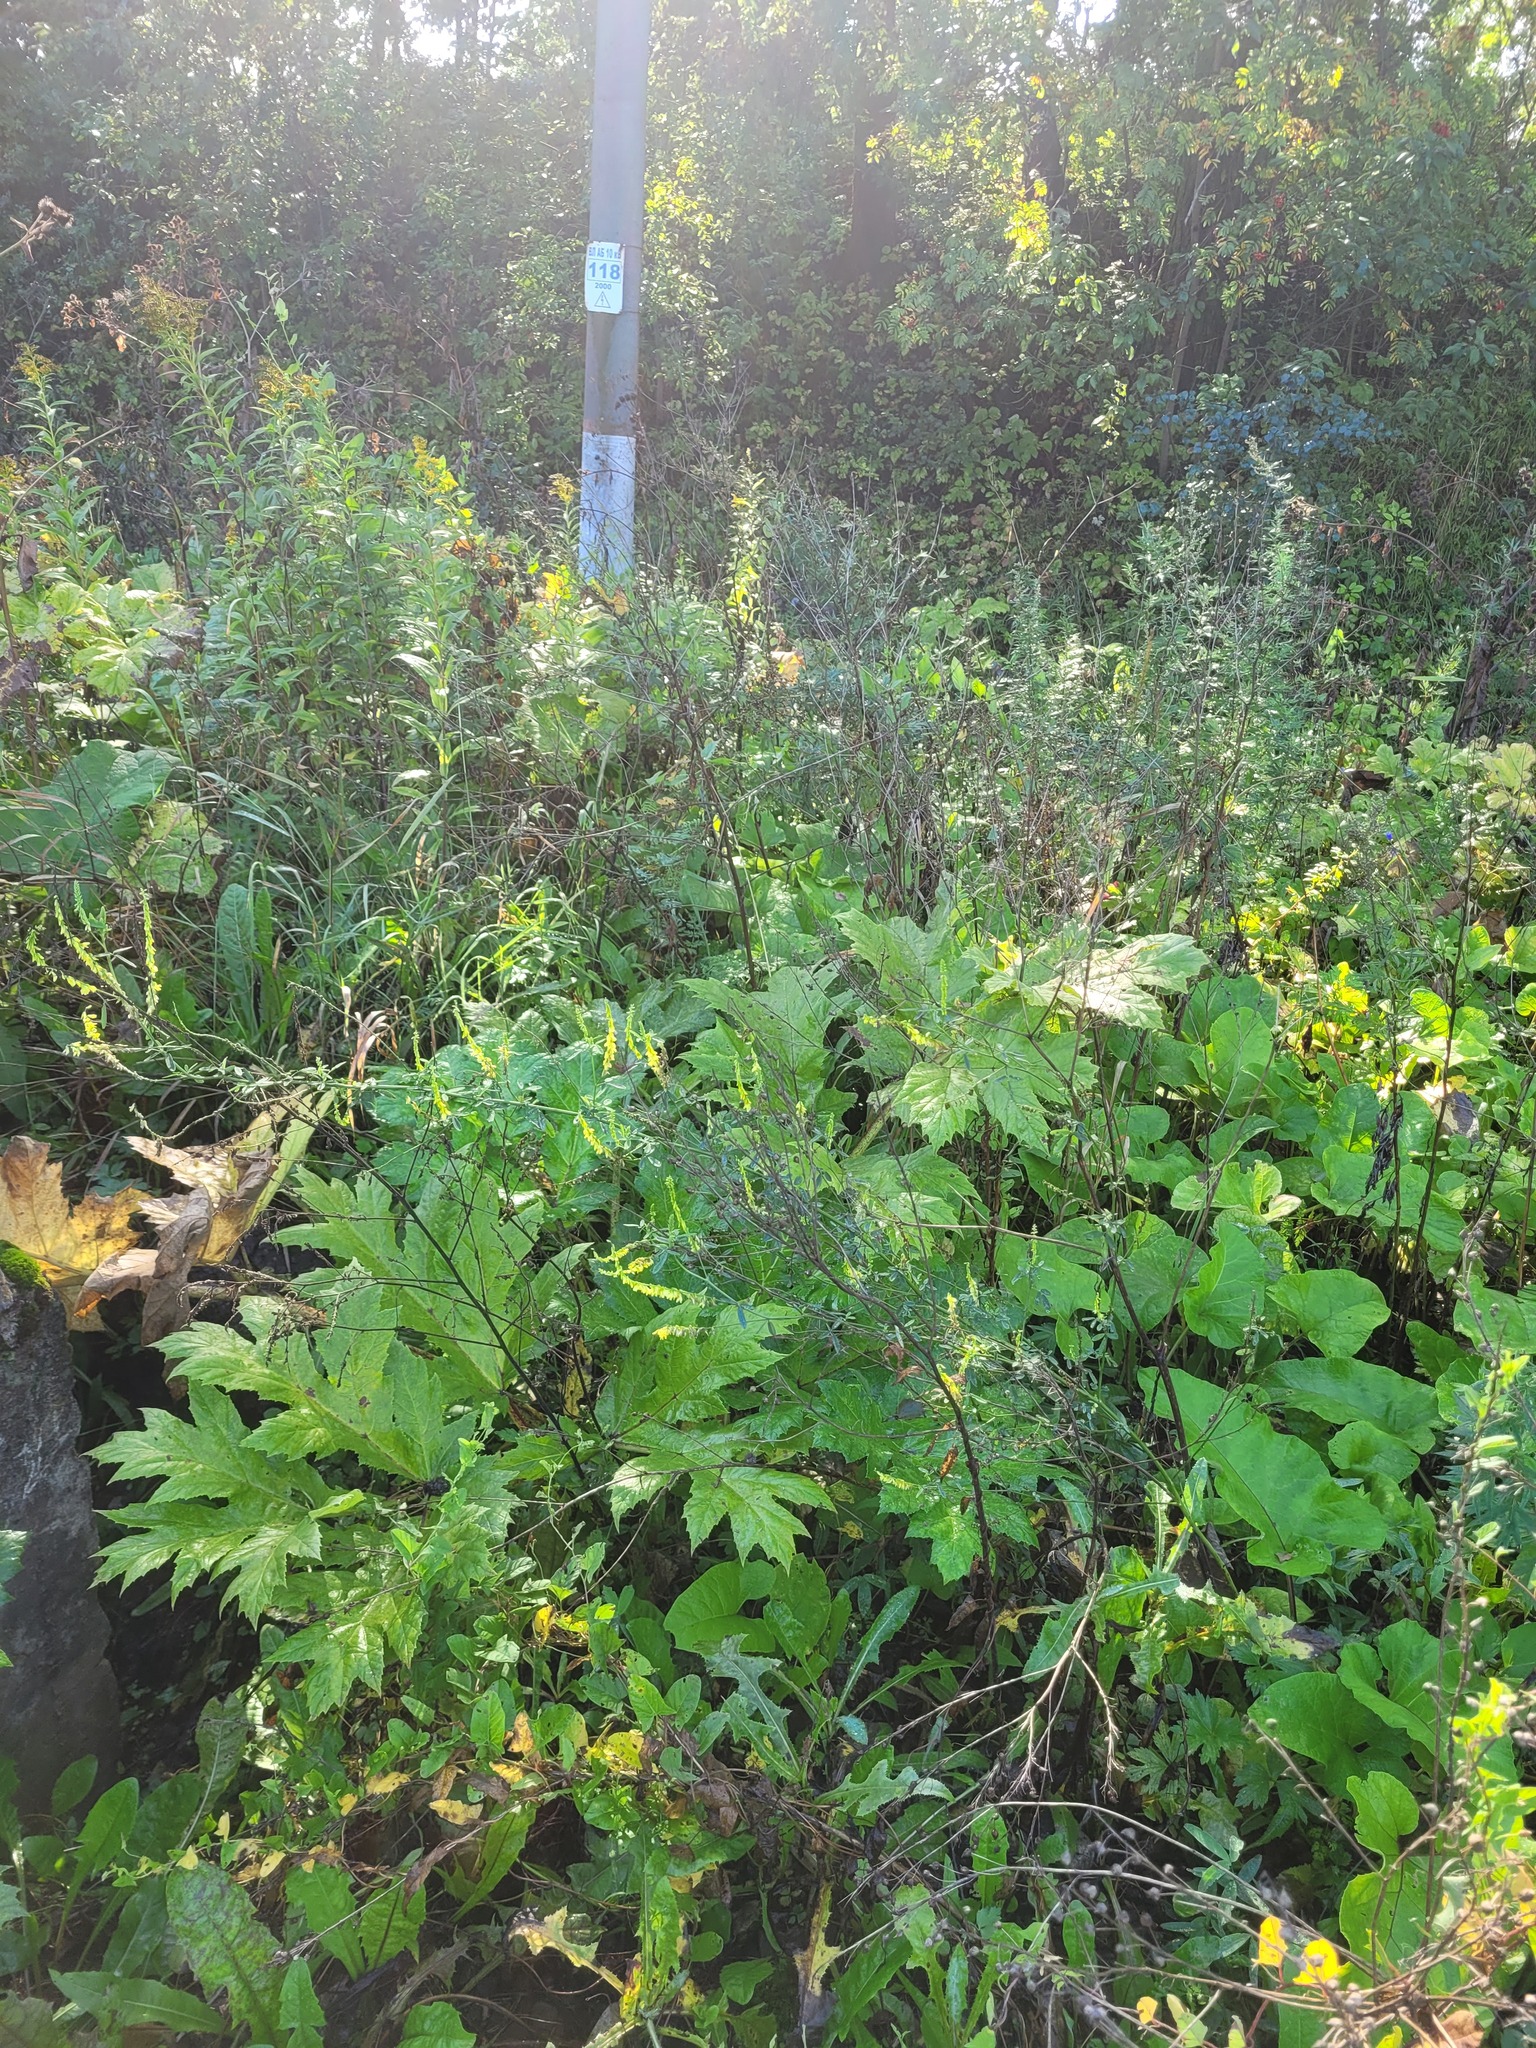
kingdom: Plantae
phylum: Tracheophyta
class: Magnoliopsida
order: Fabales
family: Fabaceae
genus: Melilotus
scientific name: Melilotus officinalis
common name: Sweetclover
